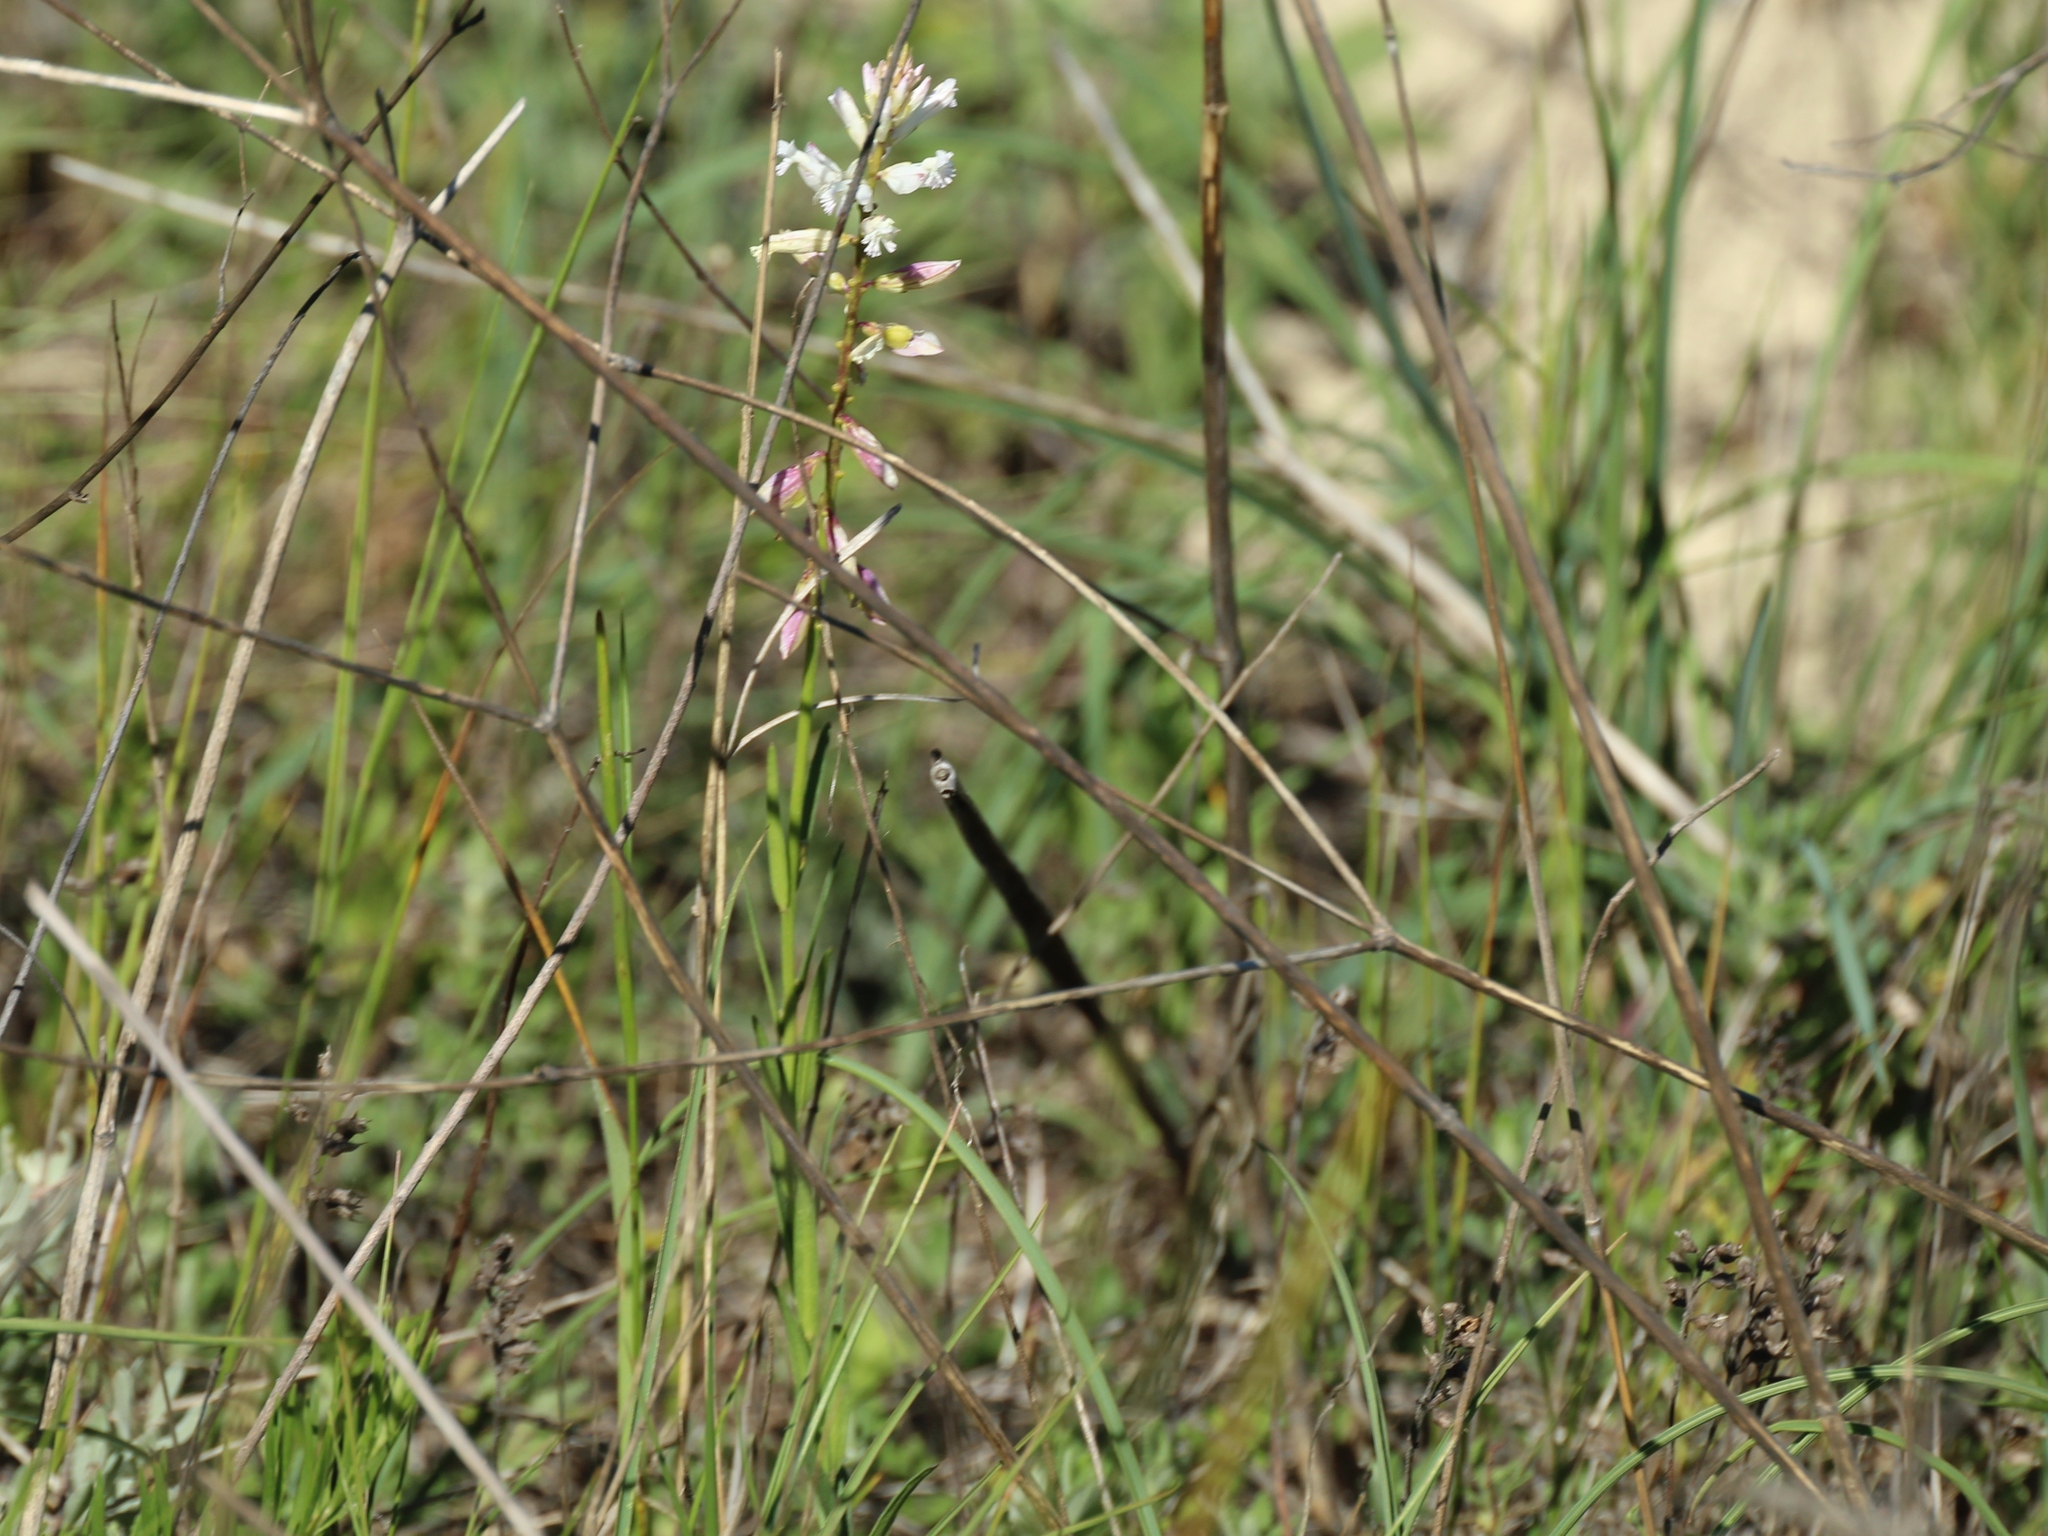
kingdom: Plantae
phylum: Tracheophyta
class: Magnoliopsida
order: Fabales
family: Polygalaceae
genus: Polygala
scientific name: Polygala major
